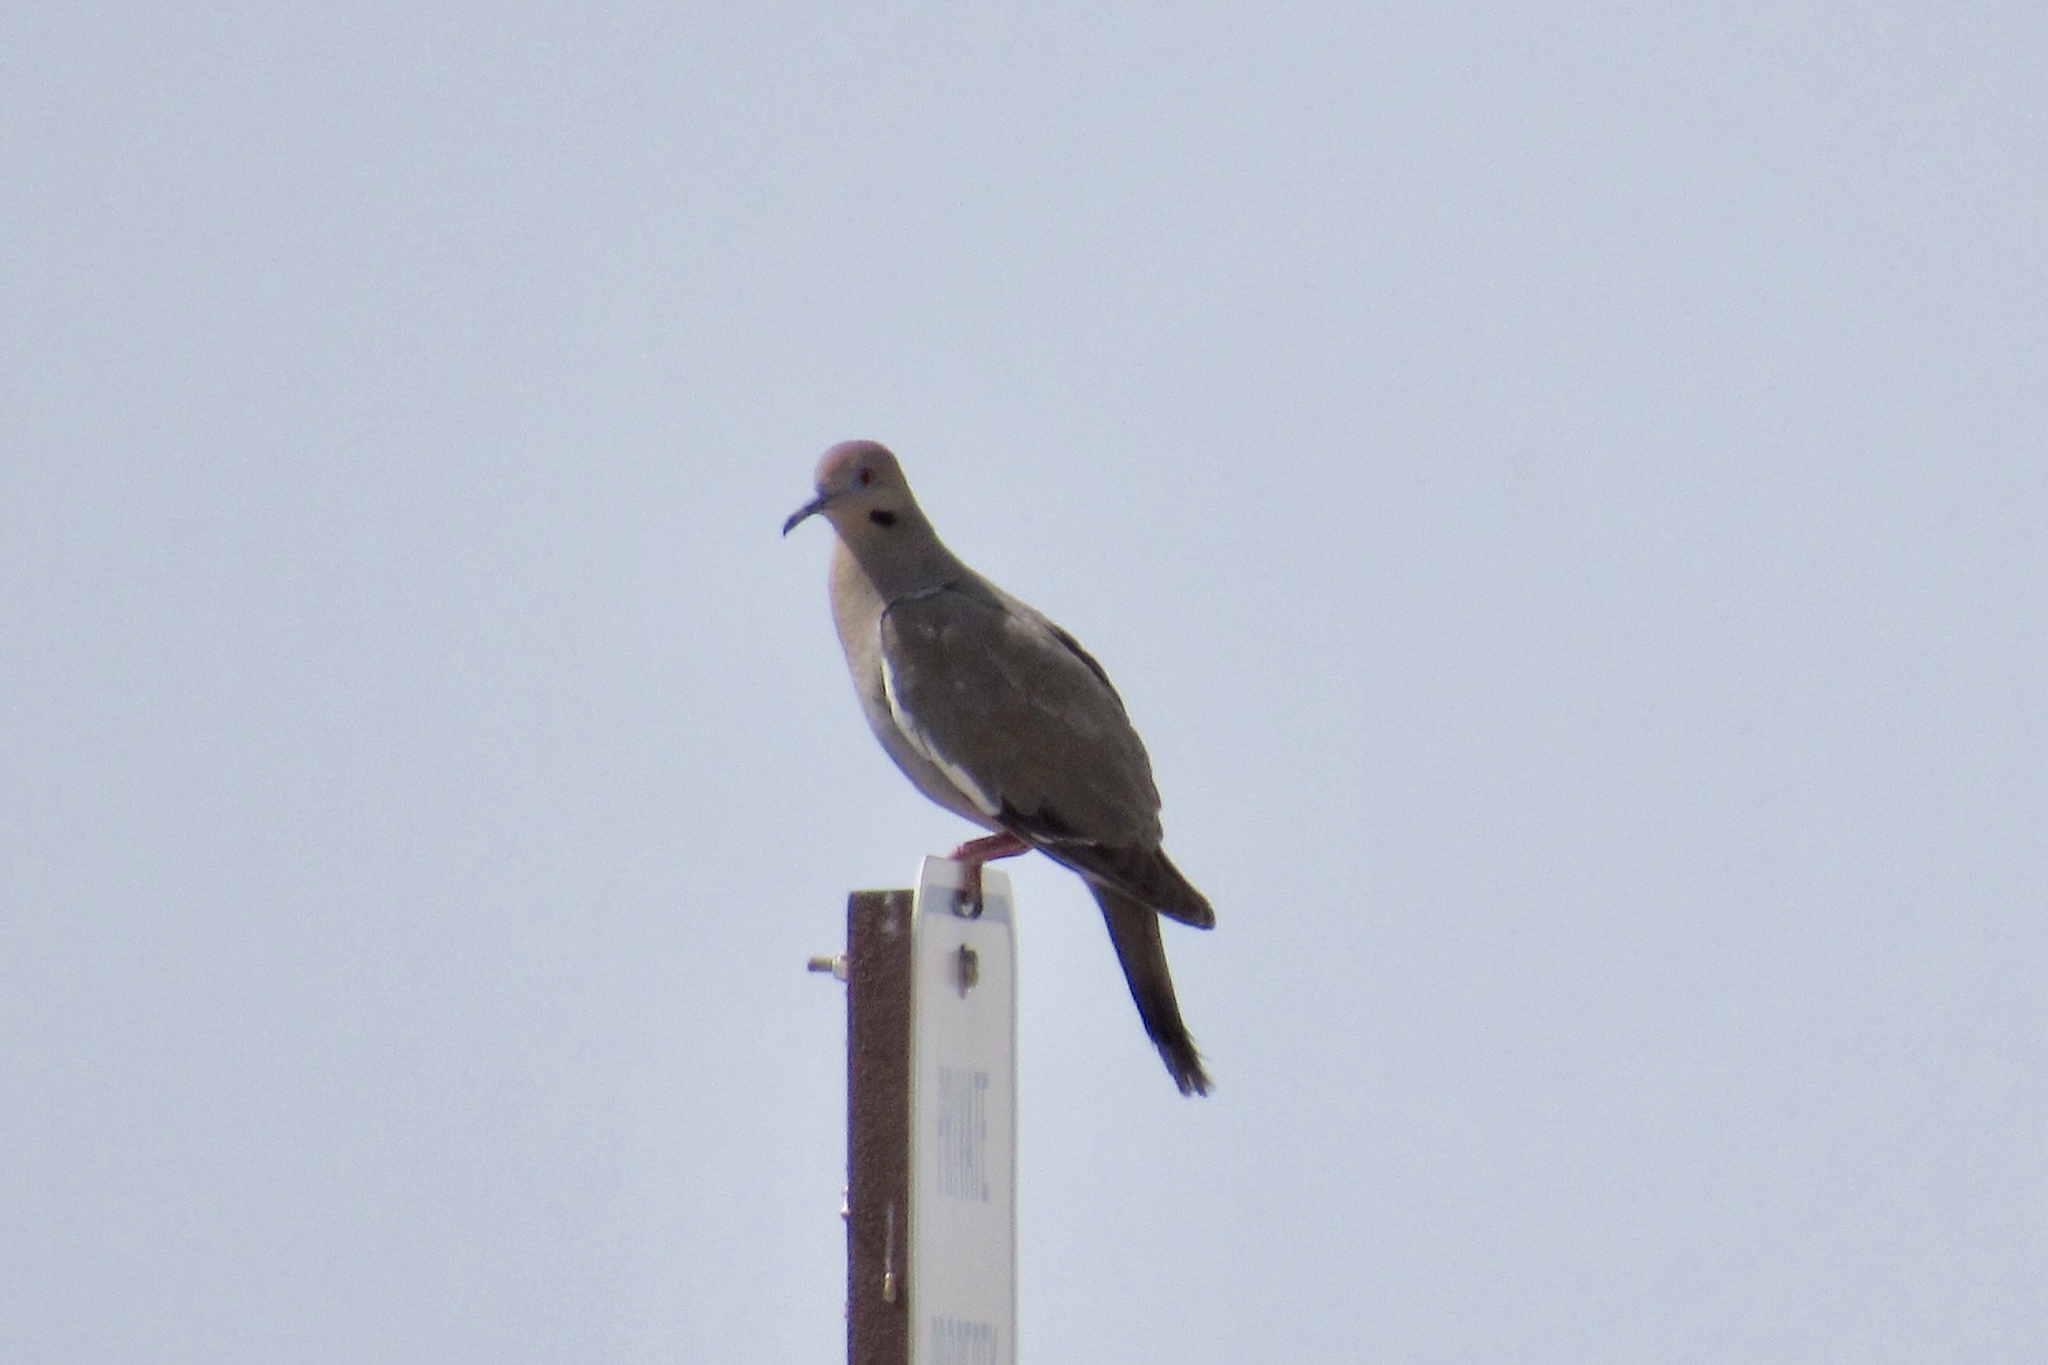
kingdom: Animalia
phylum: Chordata
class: Aves
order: Columbiformes
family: Columbidae
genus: Zenaida
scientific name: Zenaida asiatica
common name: White-winged dove
